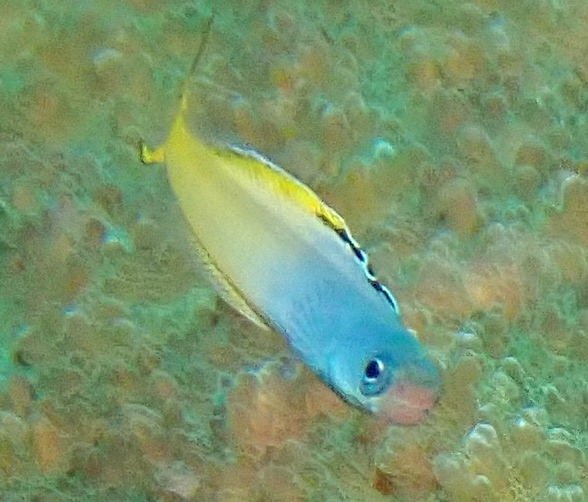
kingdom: Animalia
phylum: Chordata
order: Perciformes
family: Blenniidae
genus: Plagiotremus
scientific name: Plagiotremus laudandus
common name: Bicolour fangblenny
